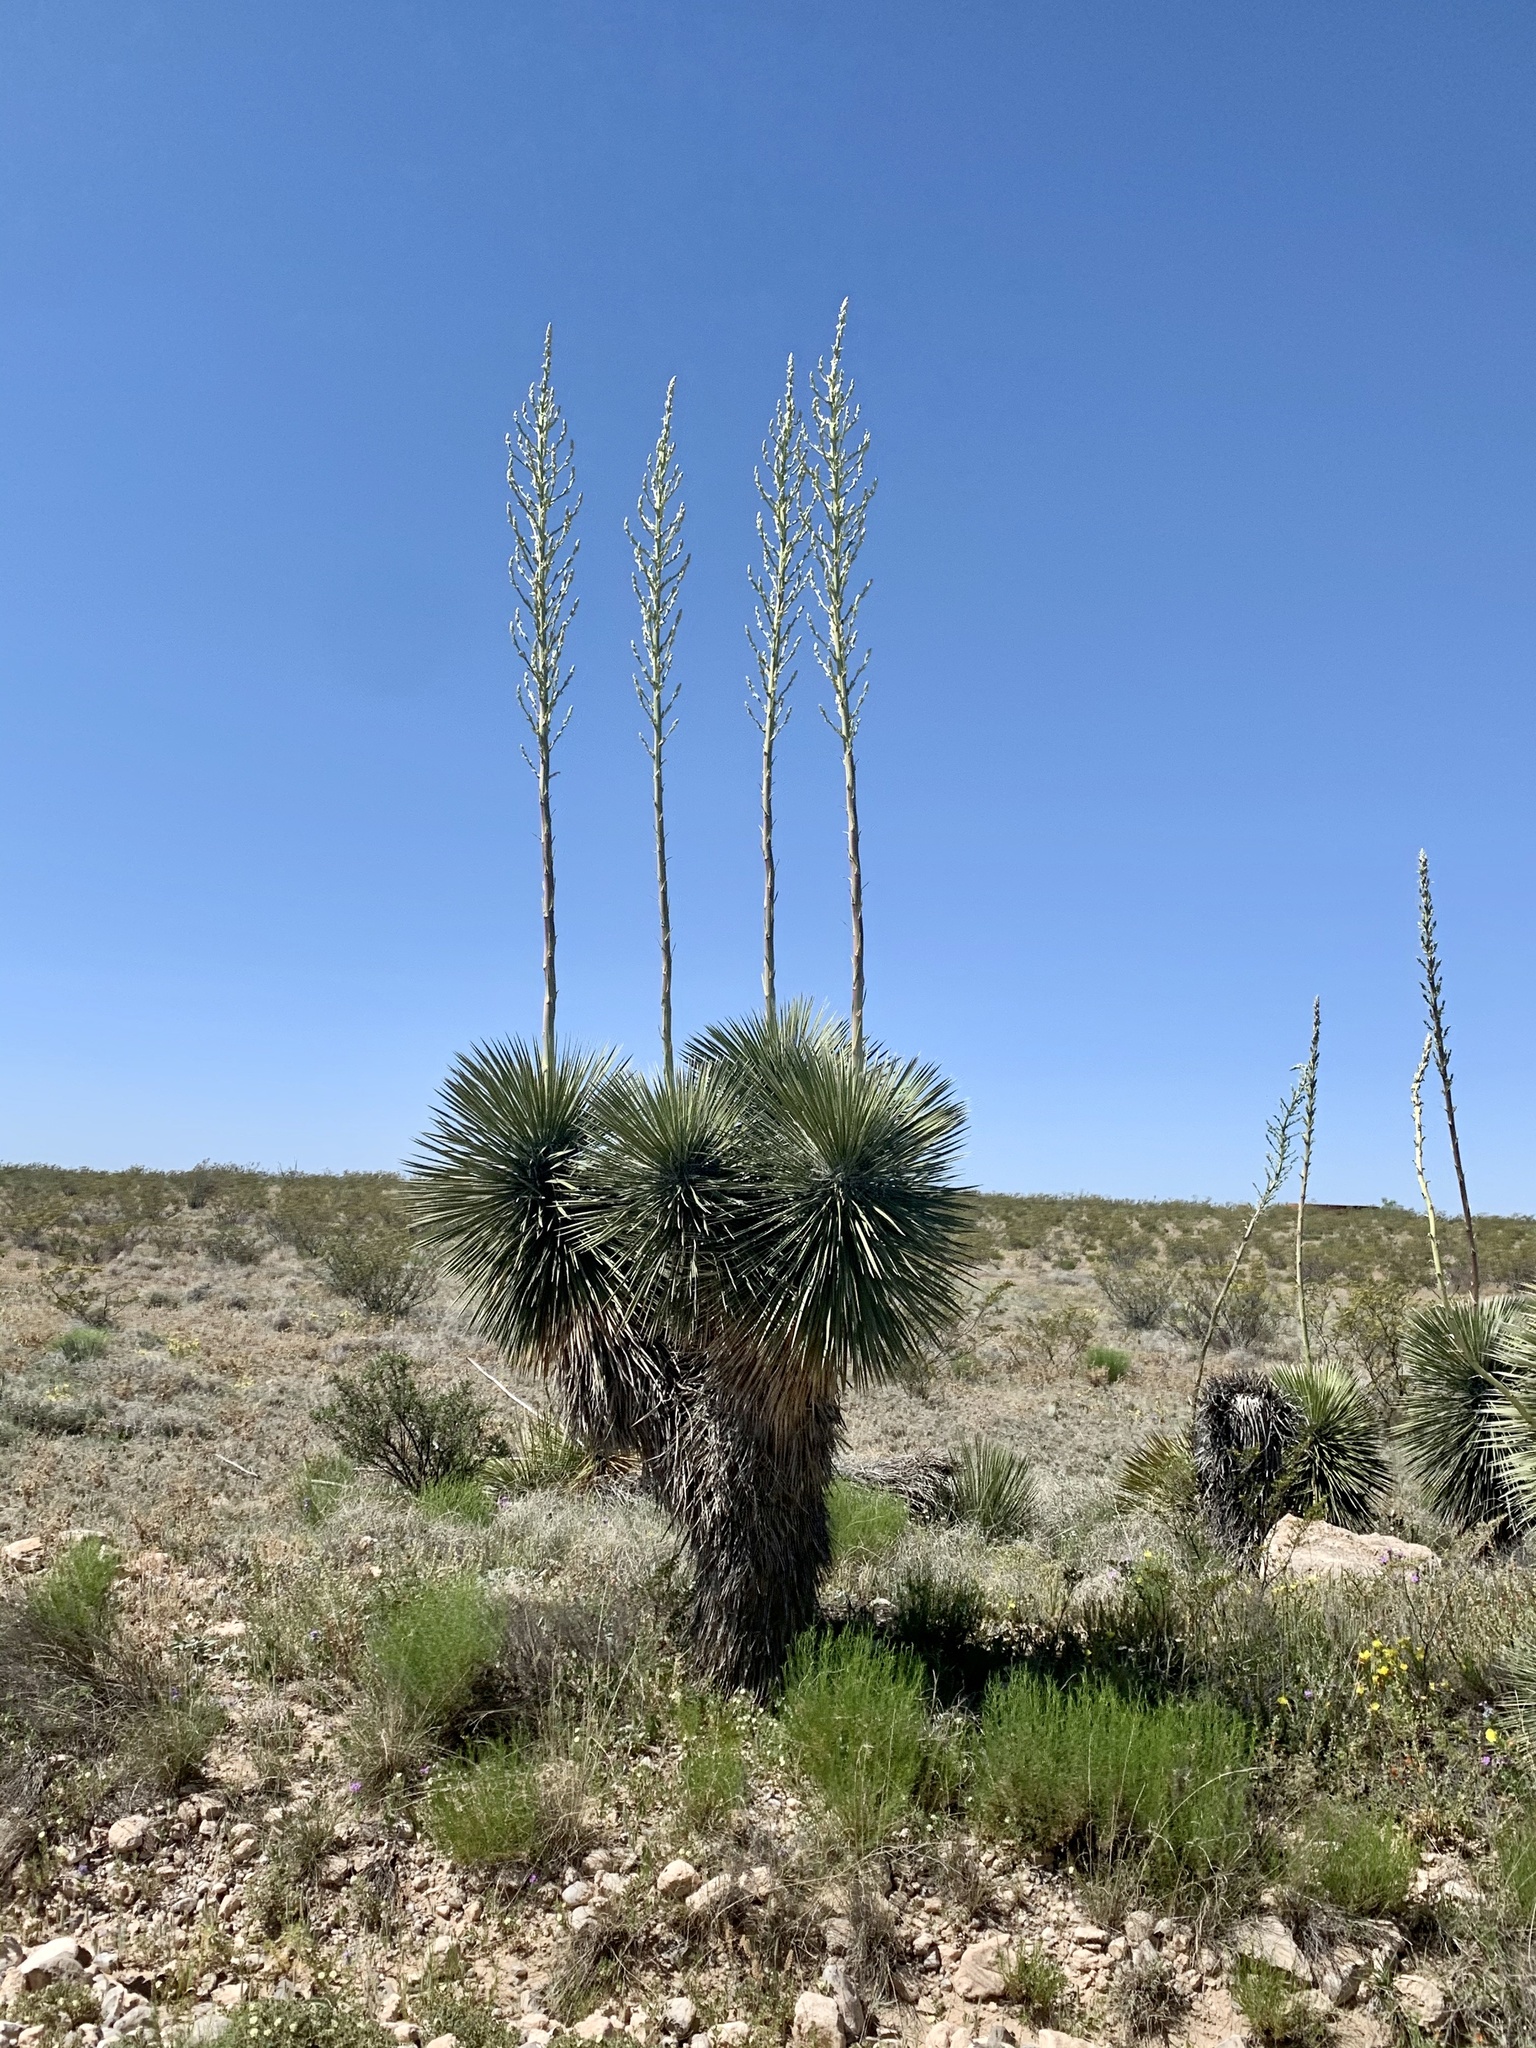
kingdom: Plantae
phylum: Tracheophyta
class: Liliopsida
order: Asparagales
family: Asparagaceae
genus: Yucca
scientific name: Yucca elata
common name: Palmella
